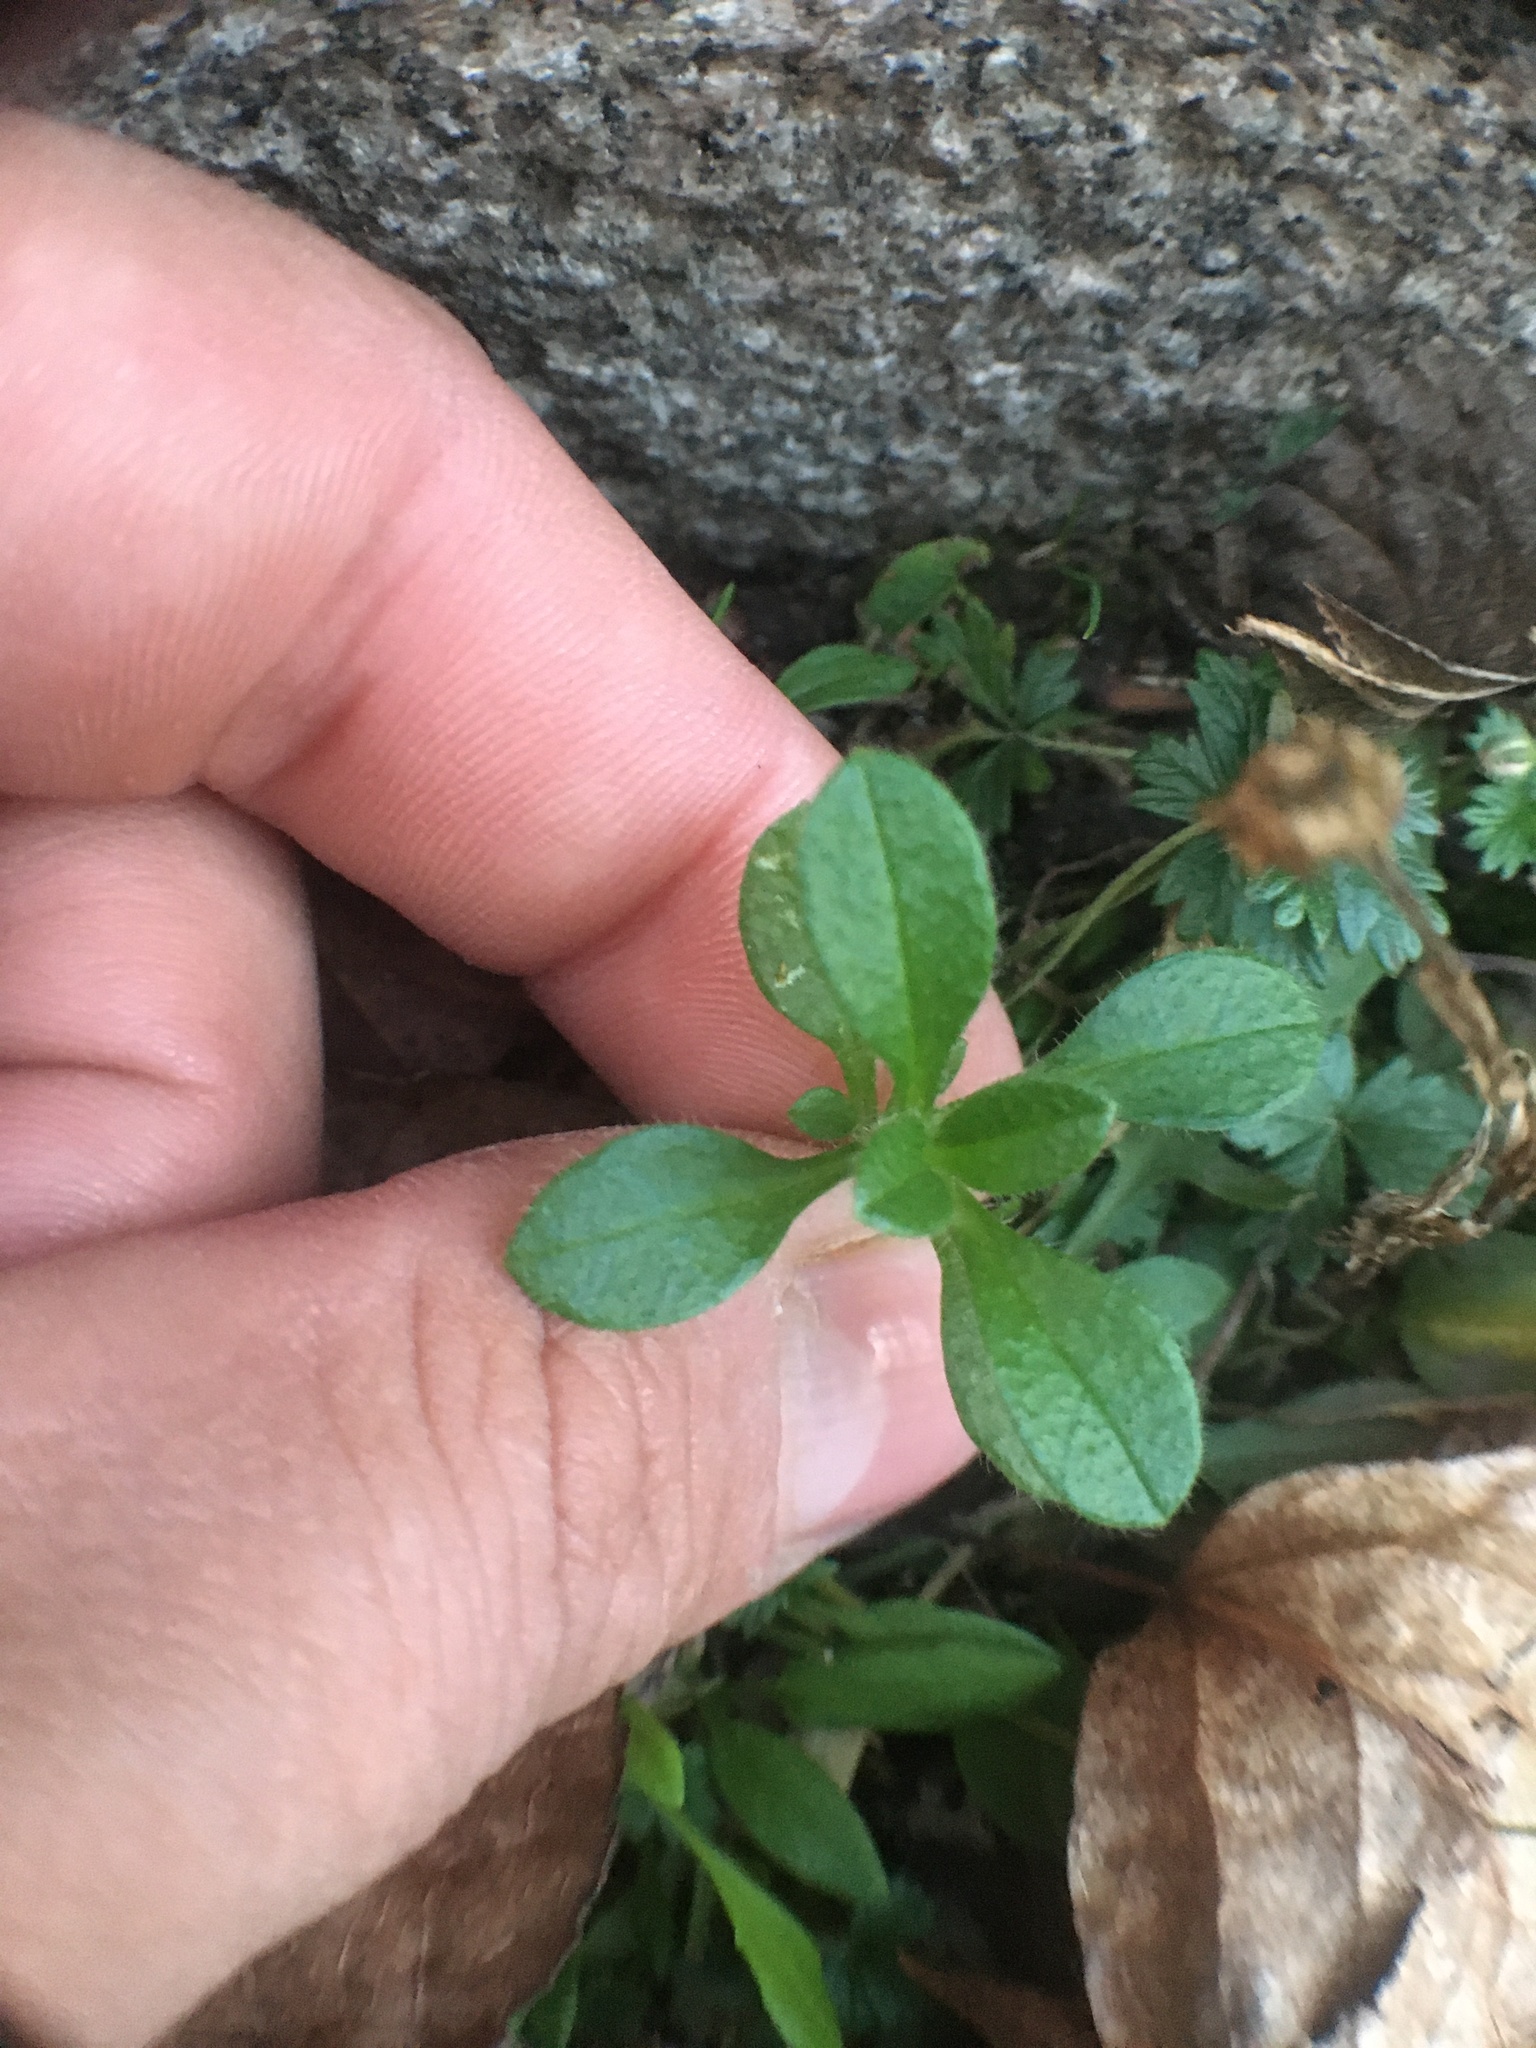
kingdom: Plantae
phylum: Tracheophyta
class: Magnoliopsida
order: Caryophyllales
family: Caryophyllaceae
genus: Cerastium
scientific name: Cerastium holosteoides
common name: Big chickweed
